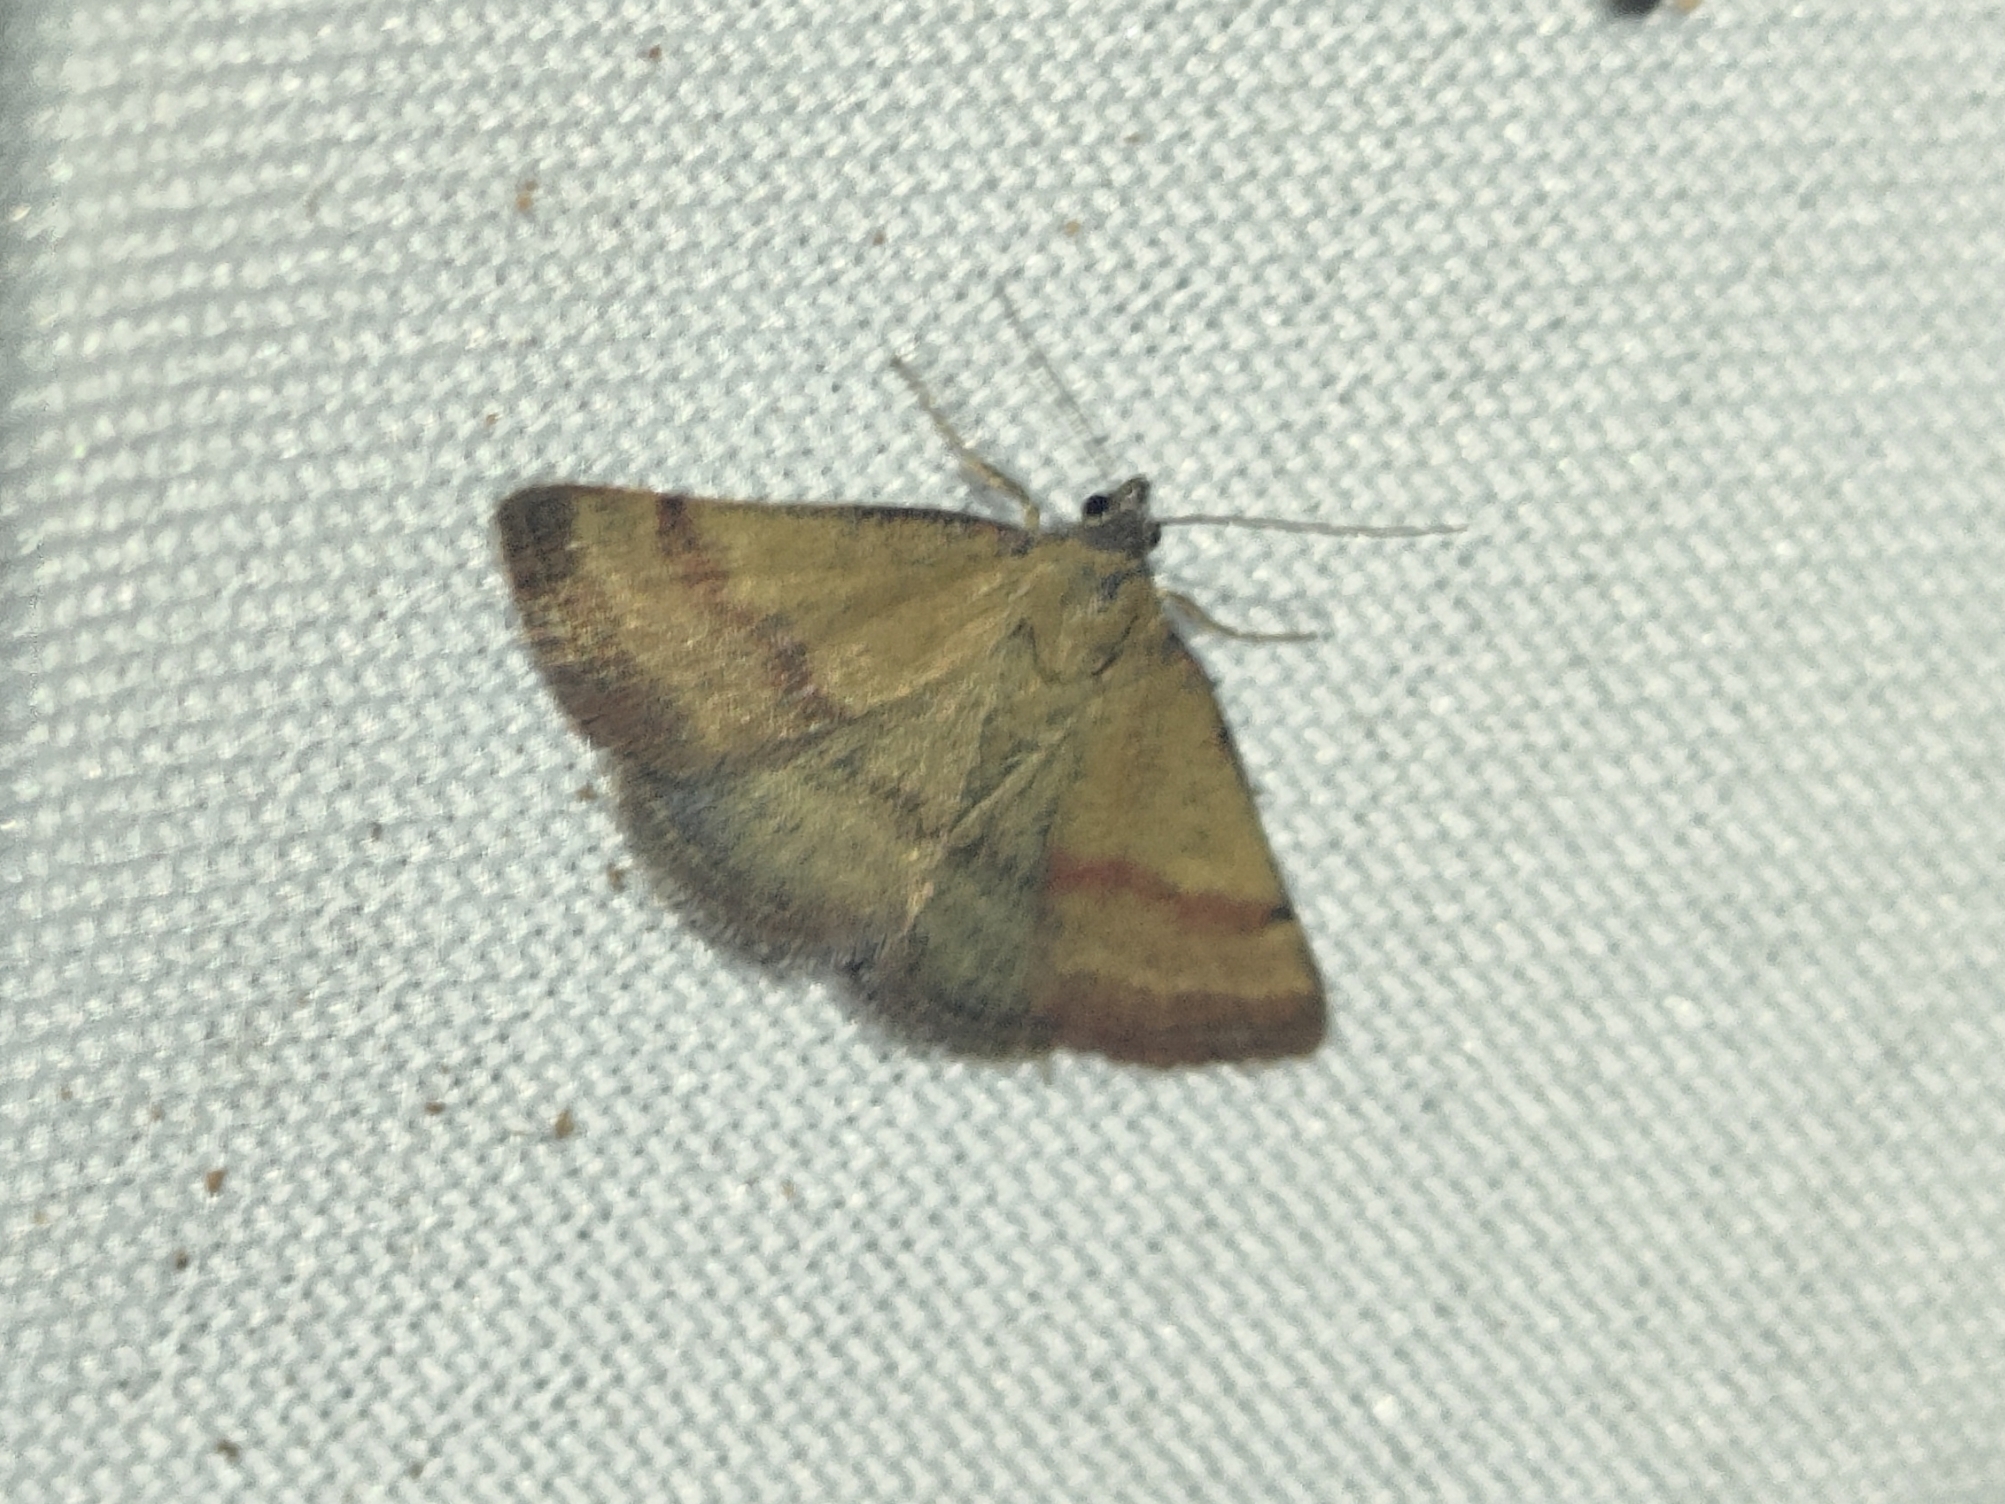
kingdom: Animalia
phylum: Arthropoda
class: Insecta
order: Lepidoptera
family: Erebidae
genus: Phytometra
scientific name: Phytometra viridaria
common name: Small purple-barred
